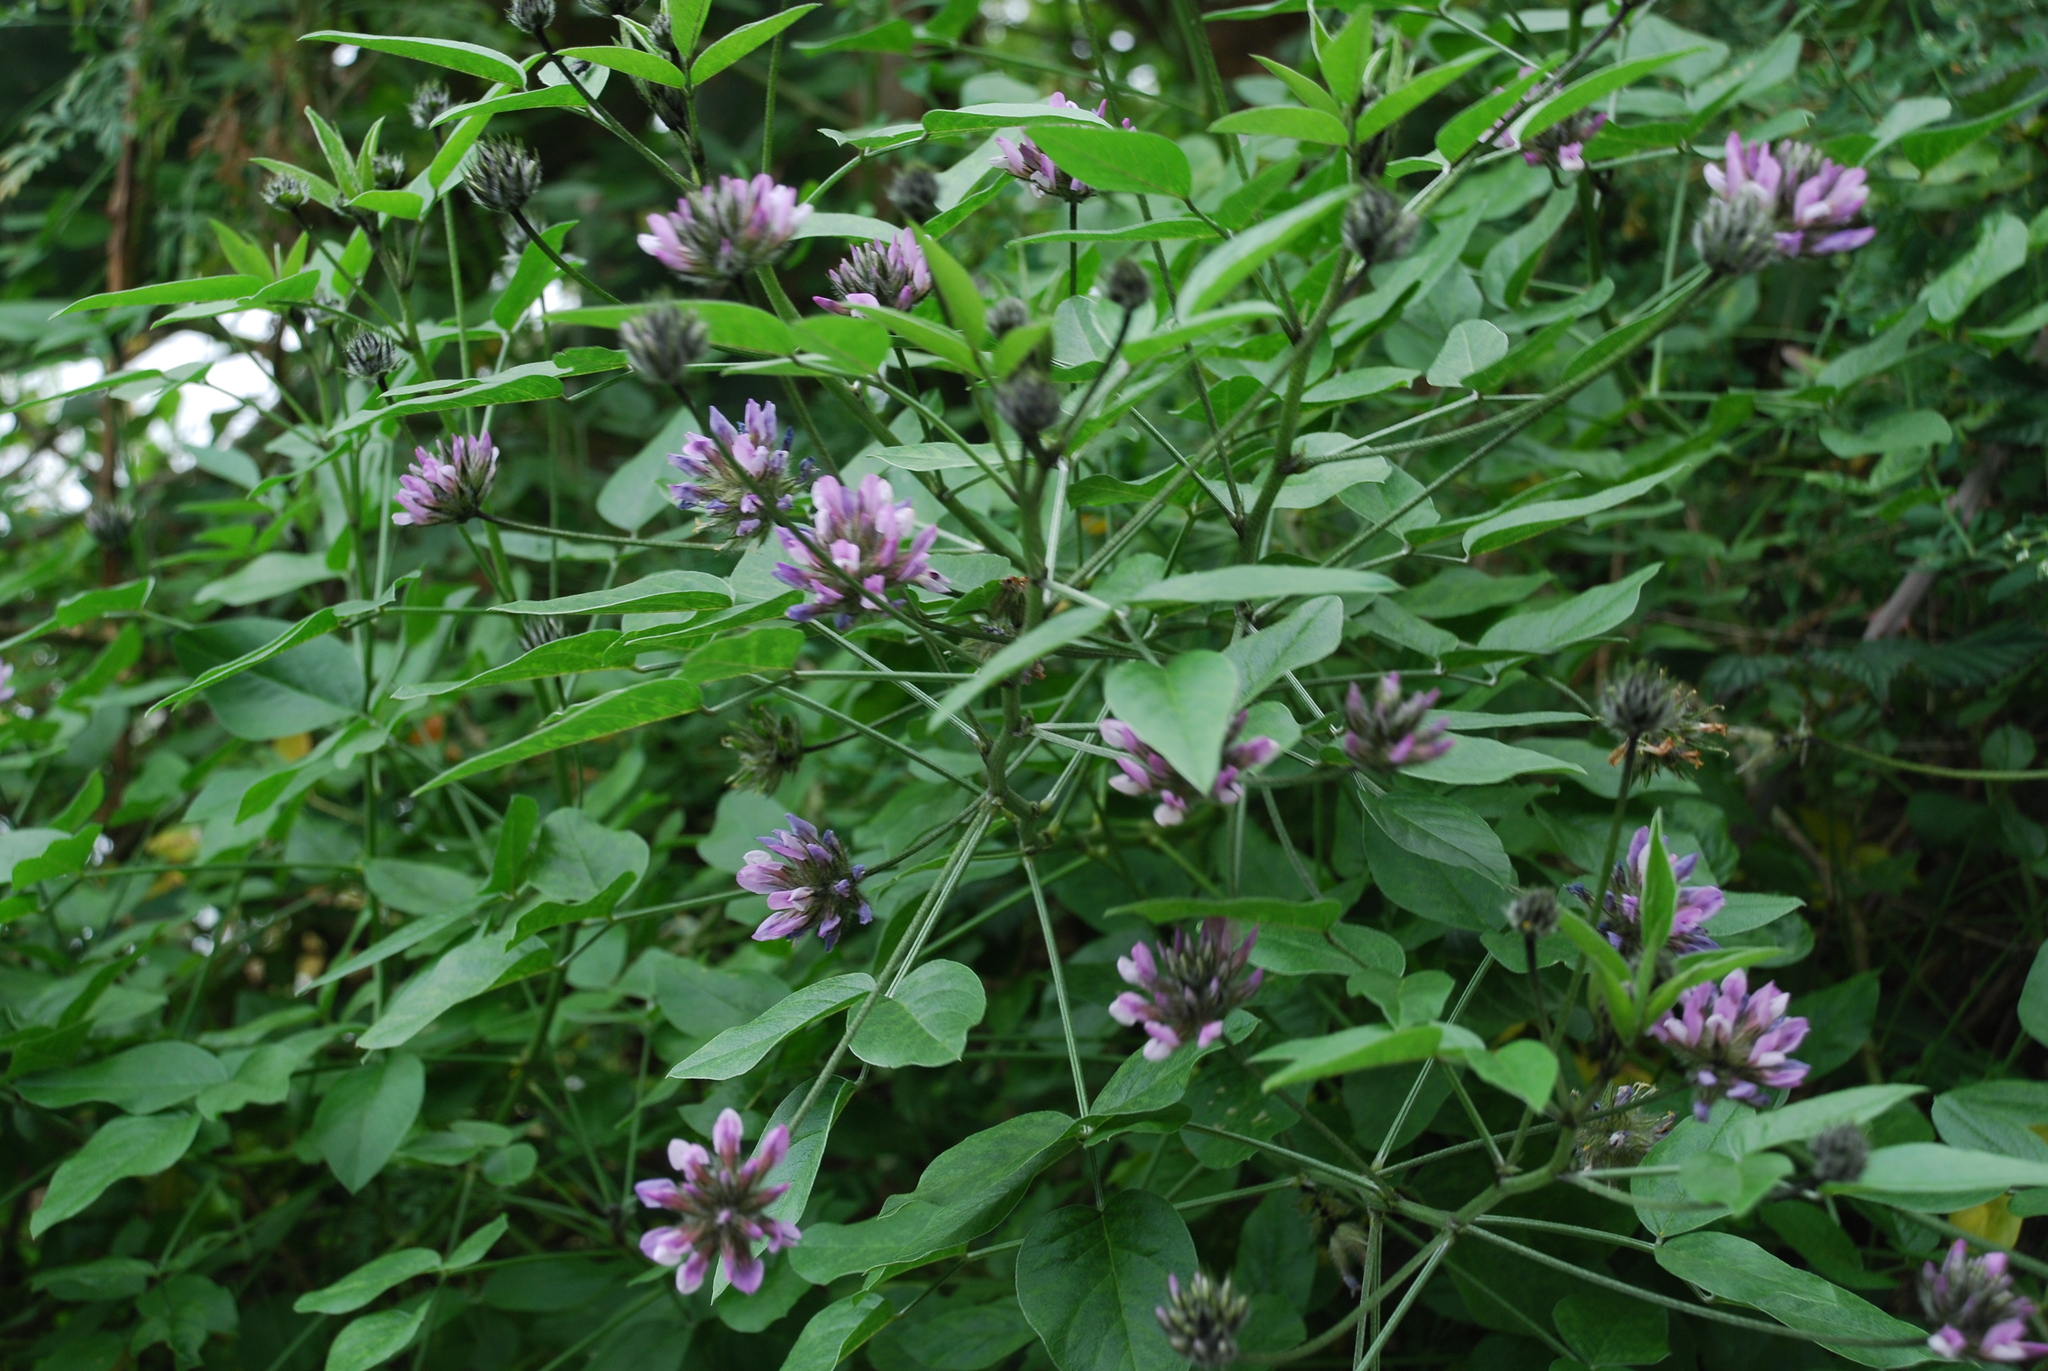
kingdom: Plantae
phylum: Tracheophyta
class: Magnoliopsida
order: Fabales
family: Fabaceae
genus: Bituminaria
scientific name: Bituminaria bituminosa
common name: Arabian pea
